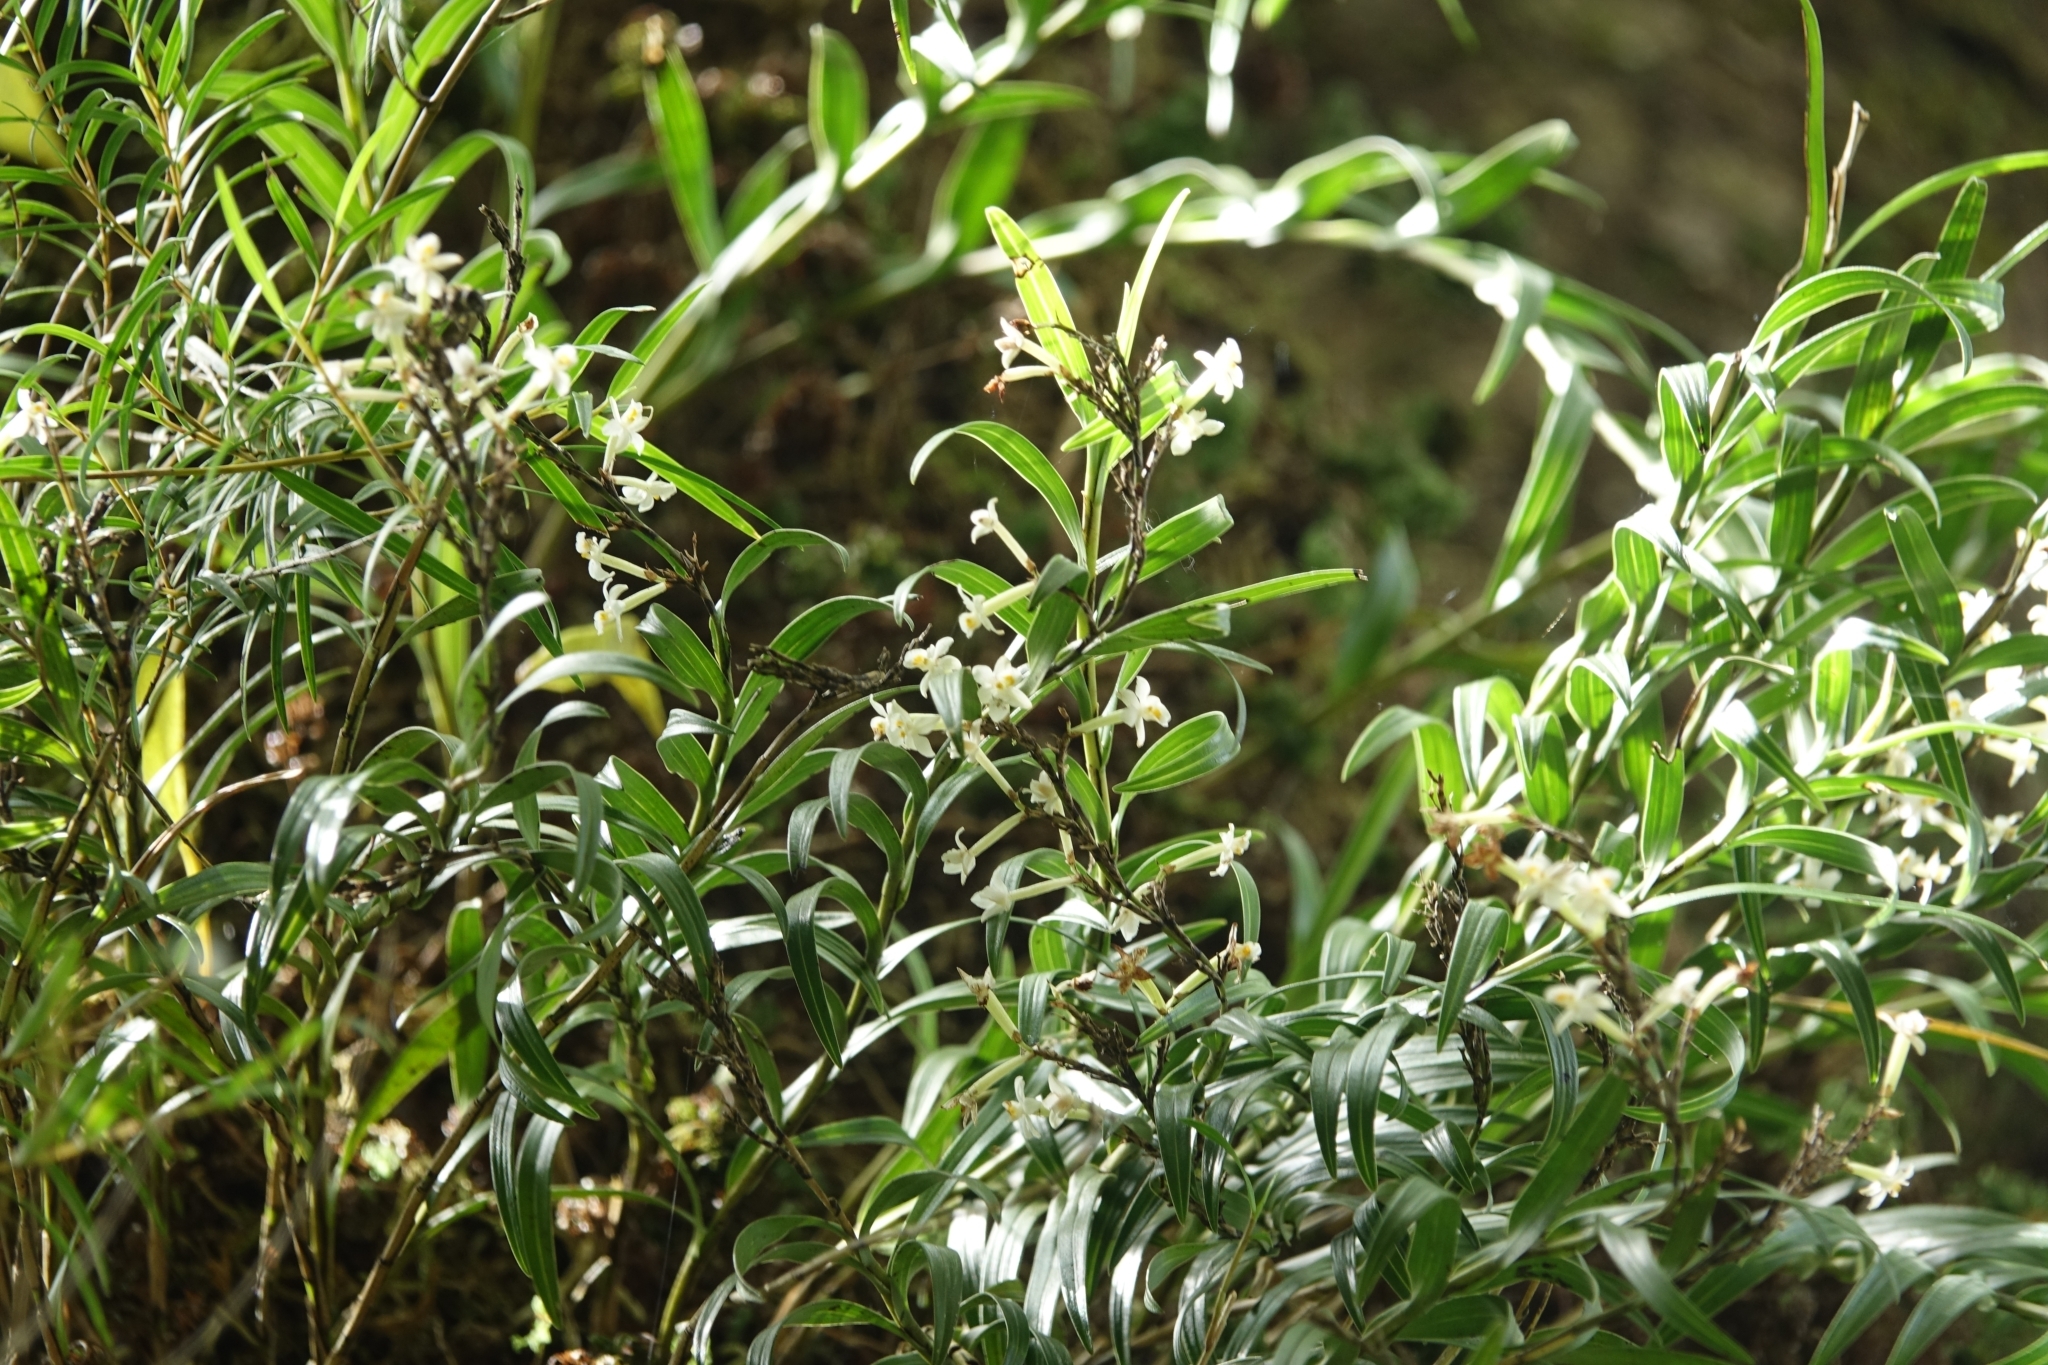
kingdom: Plantae
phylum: Tracheophyta
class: Liliopsida
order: Asparagales
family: Orchidaceae
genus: Earina
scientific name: Earina autumnalis
